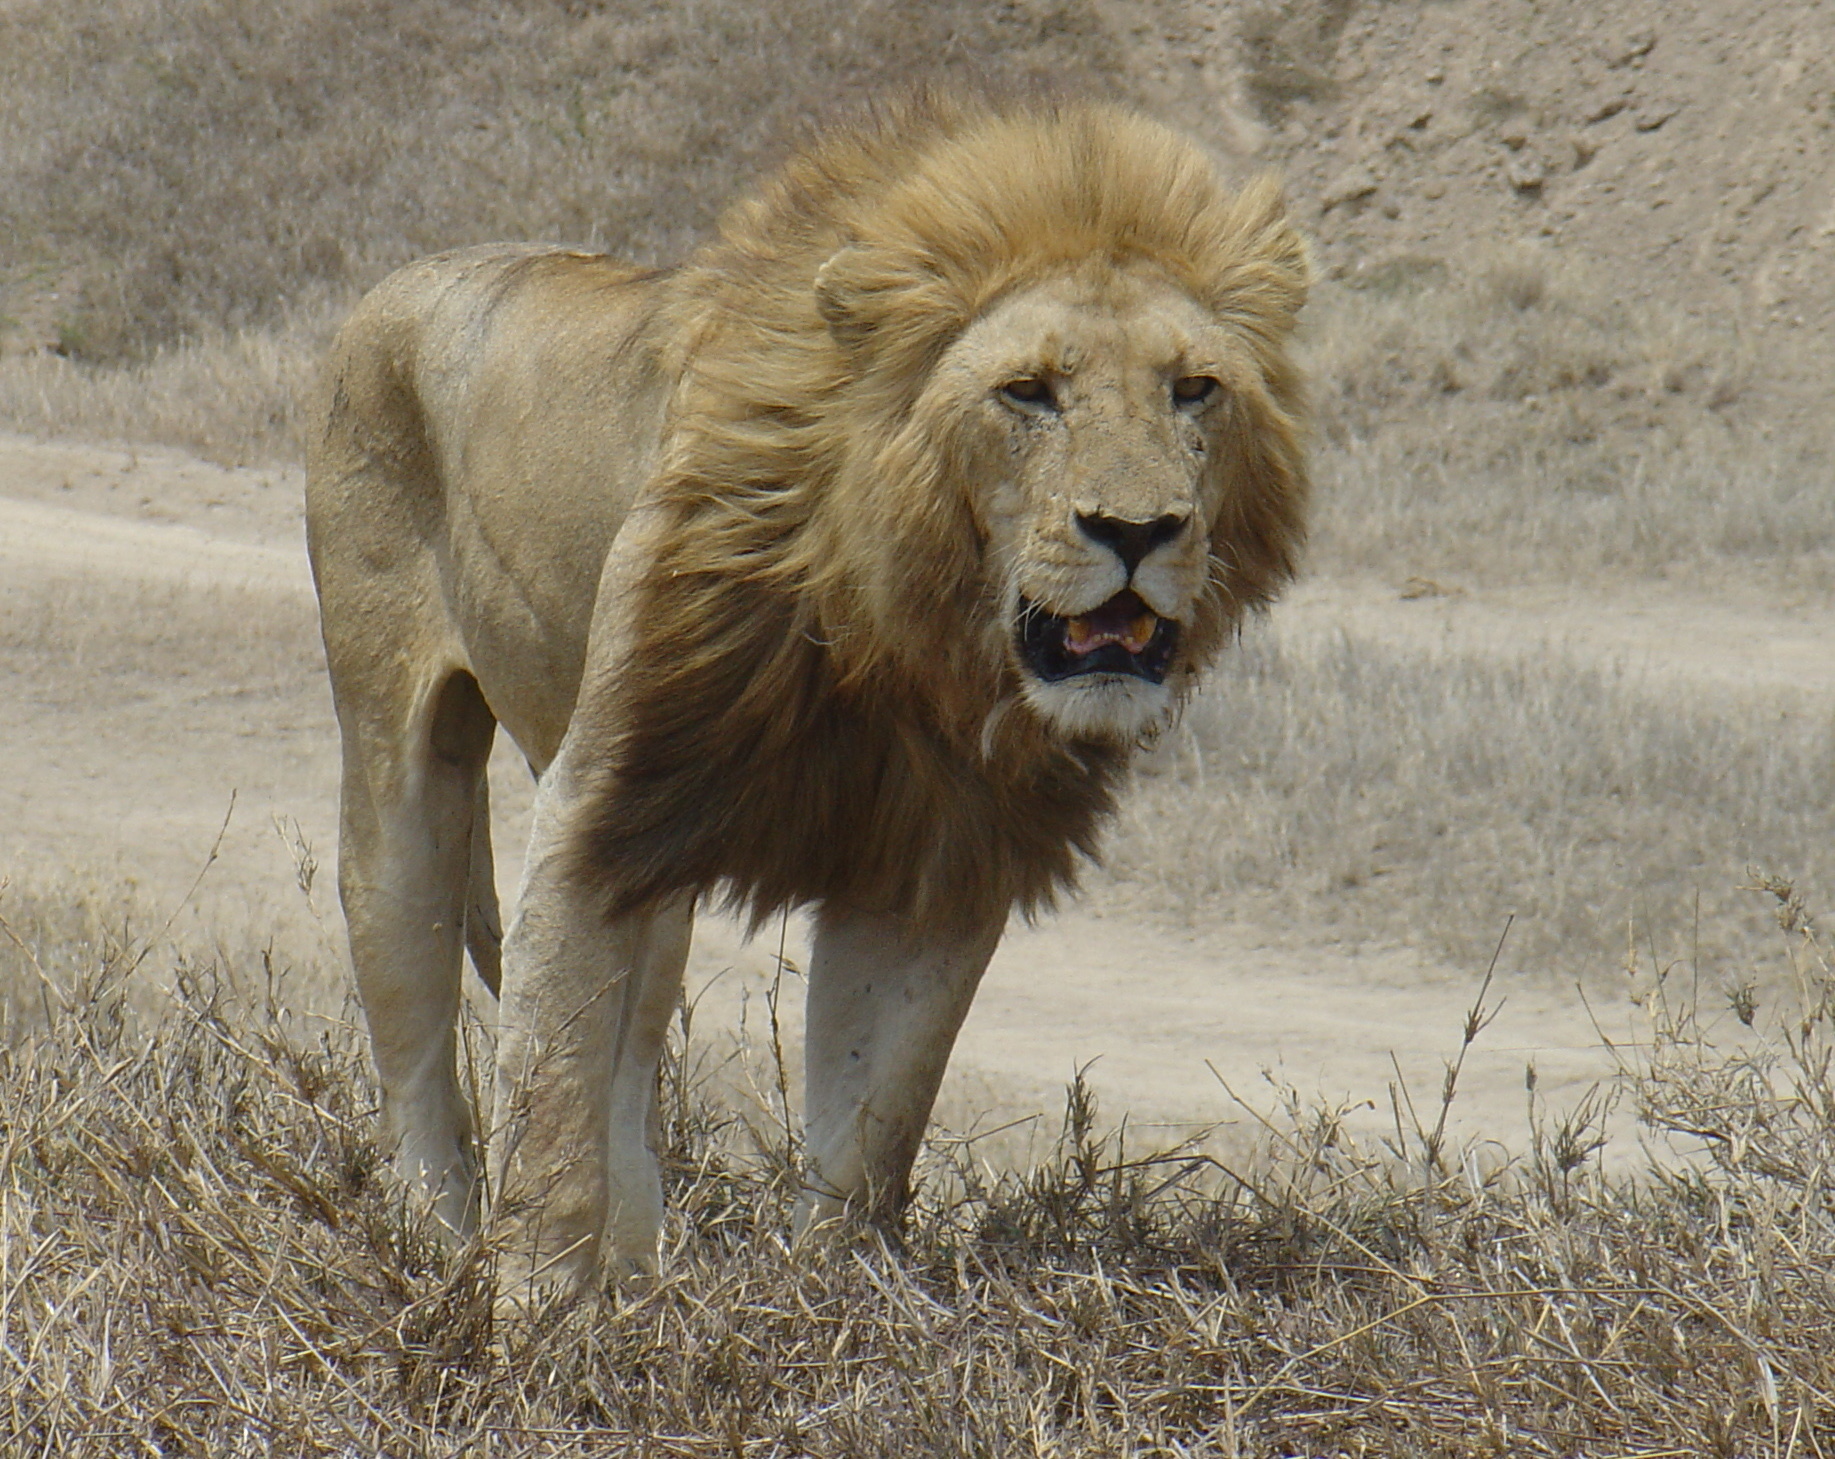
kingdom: Animalia
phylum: Chordata
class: Mammalia
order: Carnivora
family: Felidae
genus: Panthera
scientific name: Panthera leo
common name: Lion
